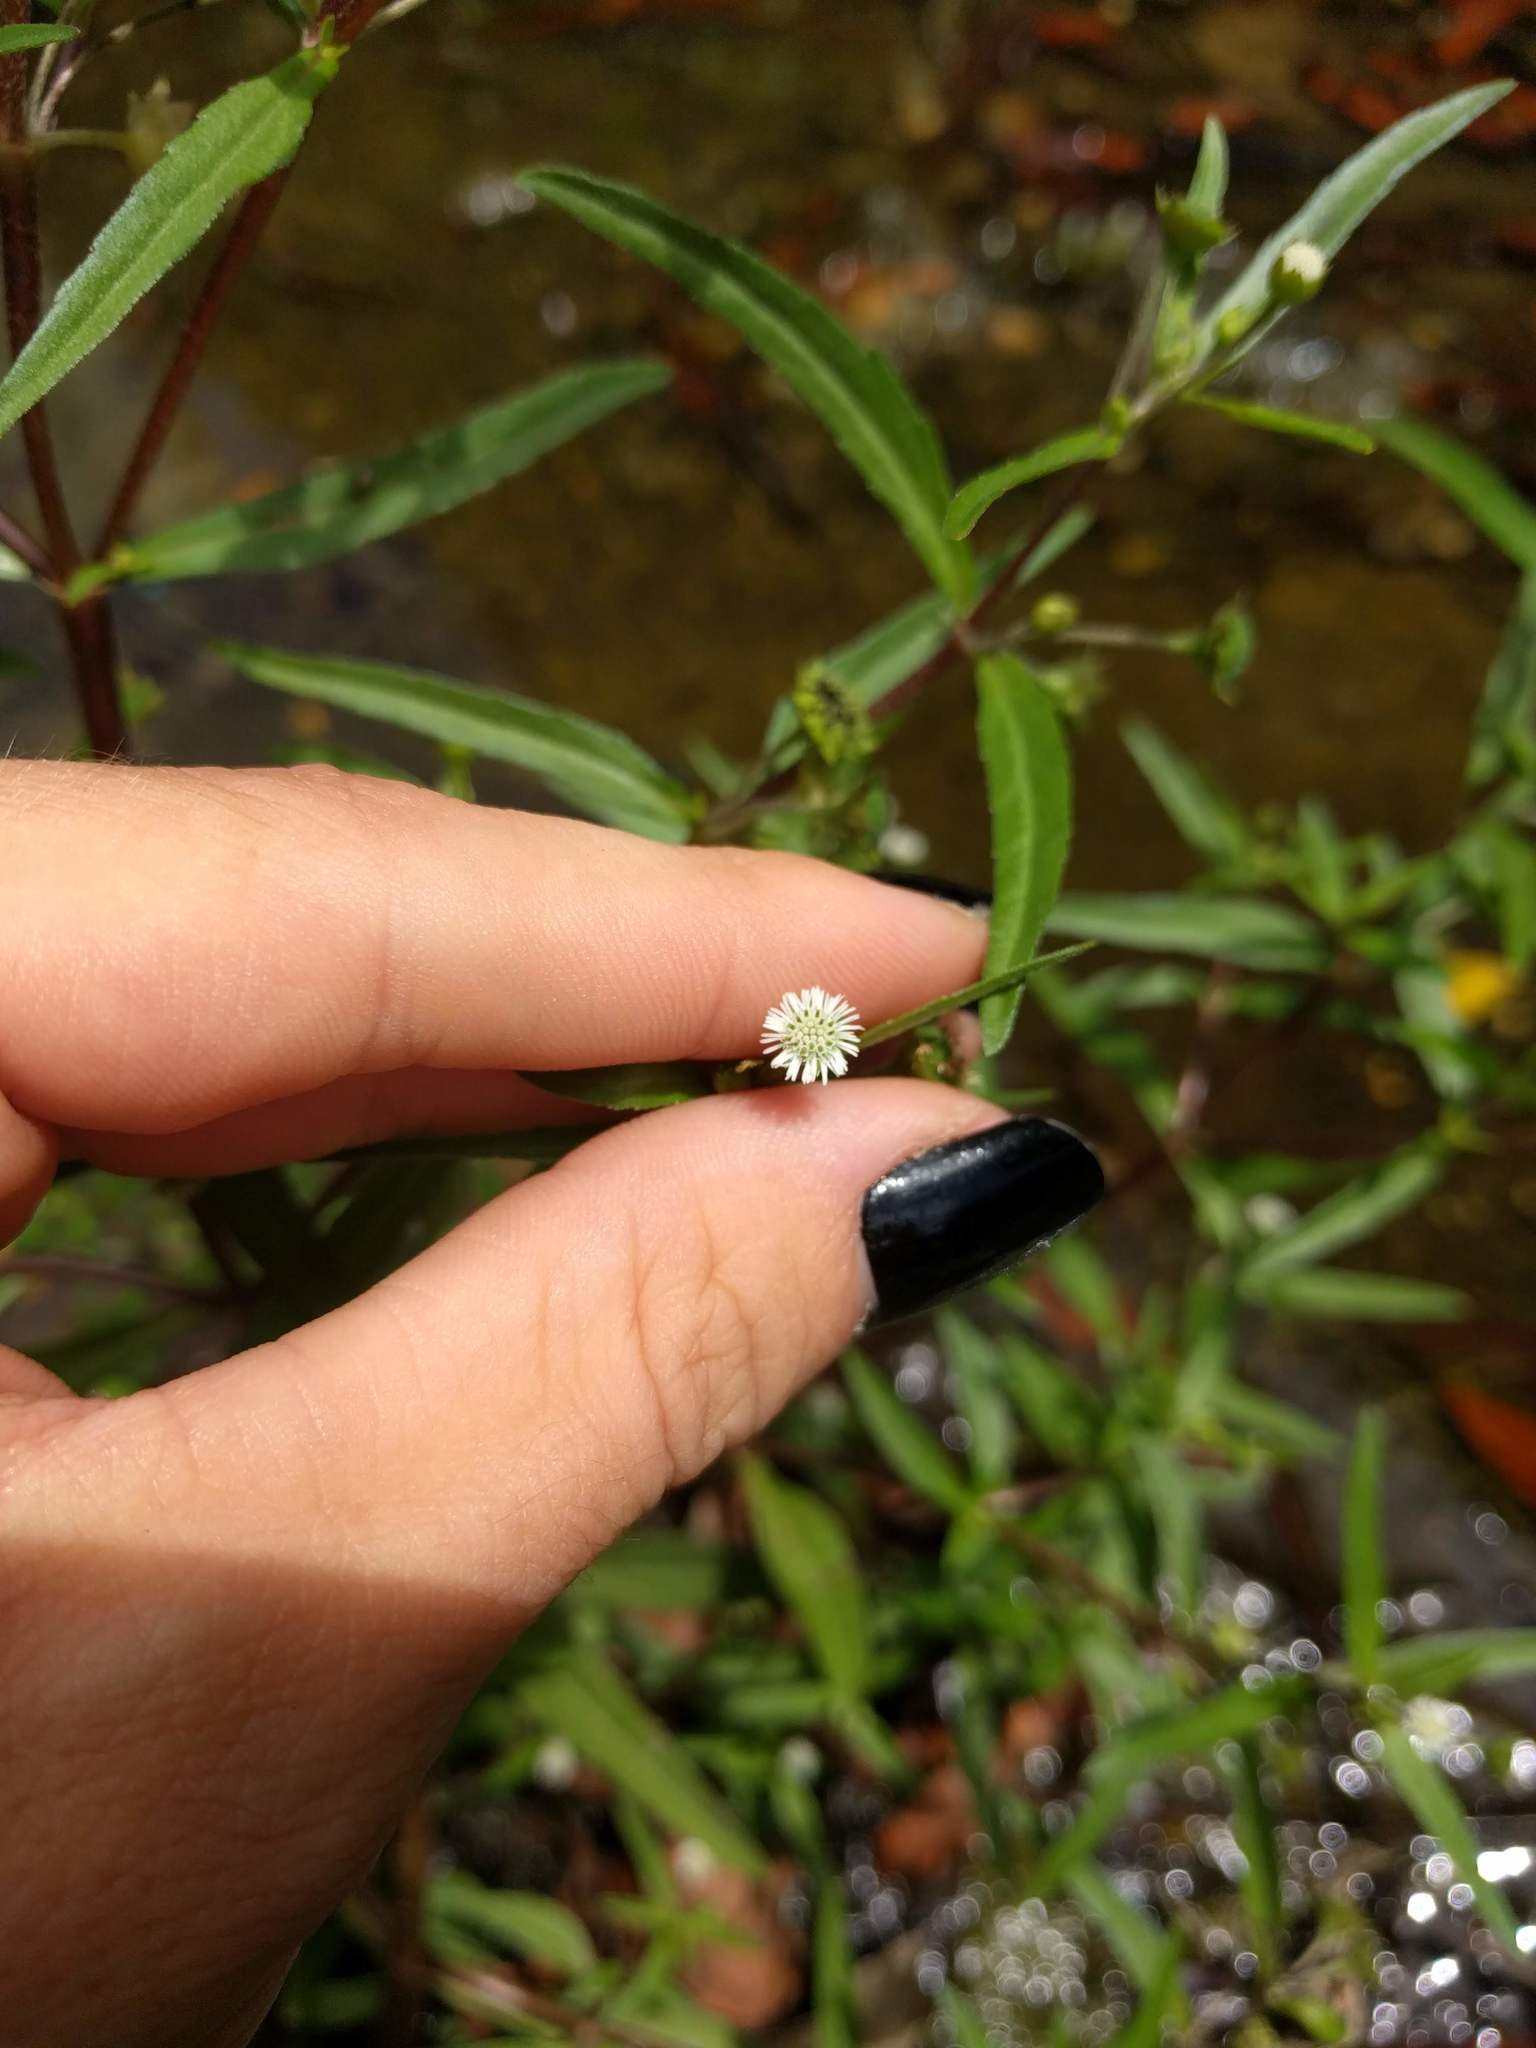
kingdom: Plantae
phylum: Tracheophyta
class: Magnoliopsida
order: Asterales
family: Asteraceae
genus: Eclipta
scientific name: Eclipta prostrata
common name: False daisy
